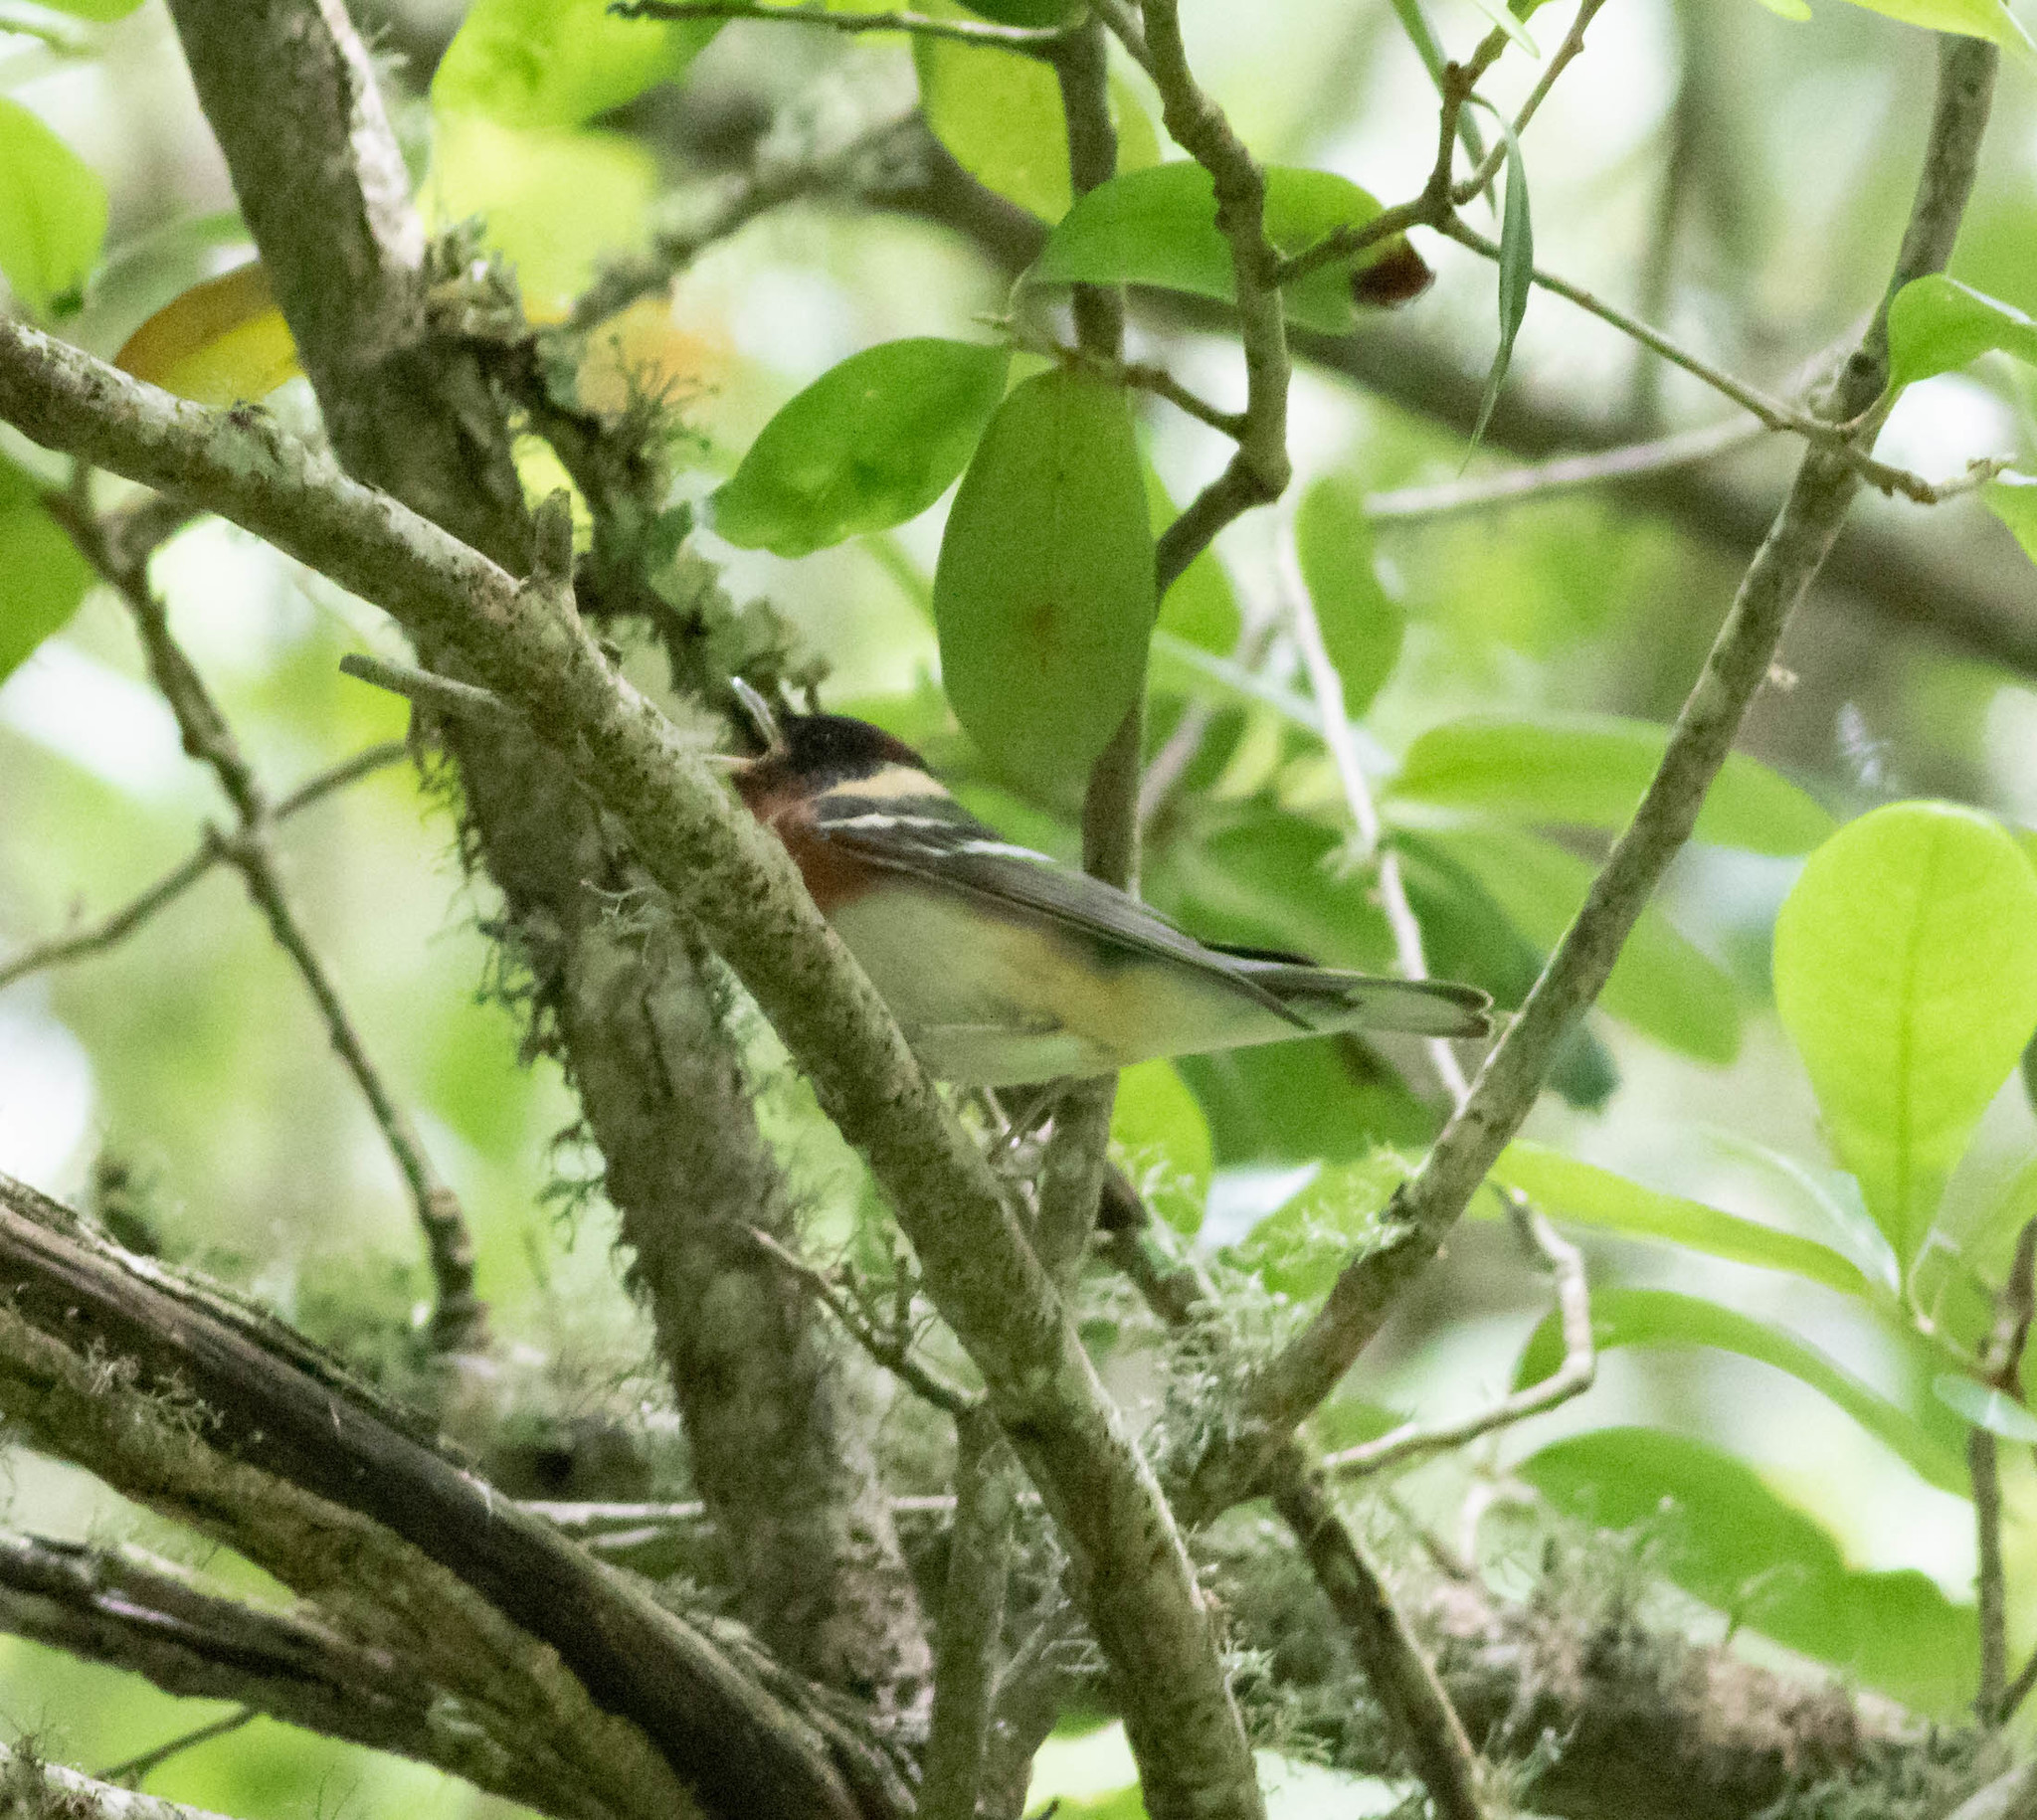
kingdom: Animalia
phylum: Chordata
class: Aves
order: Passeriformes
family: Parulidae
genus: Setophaga
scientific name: Setophaga castanea
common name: Bay-breasted warbler
